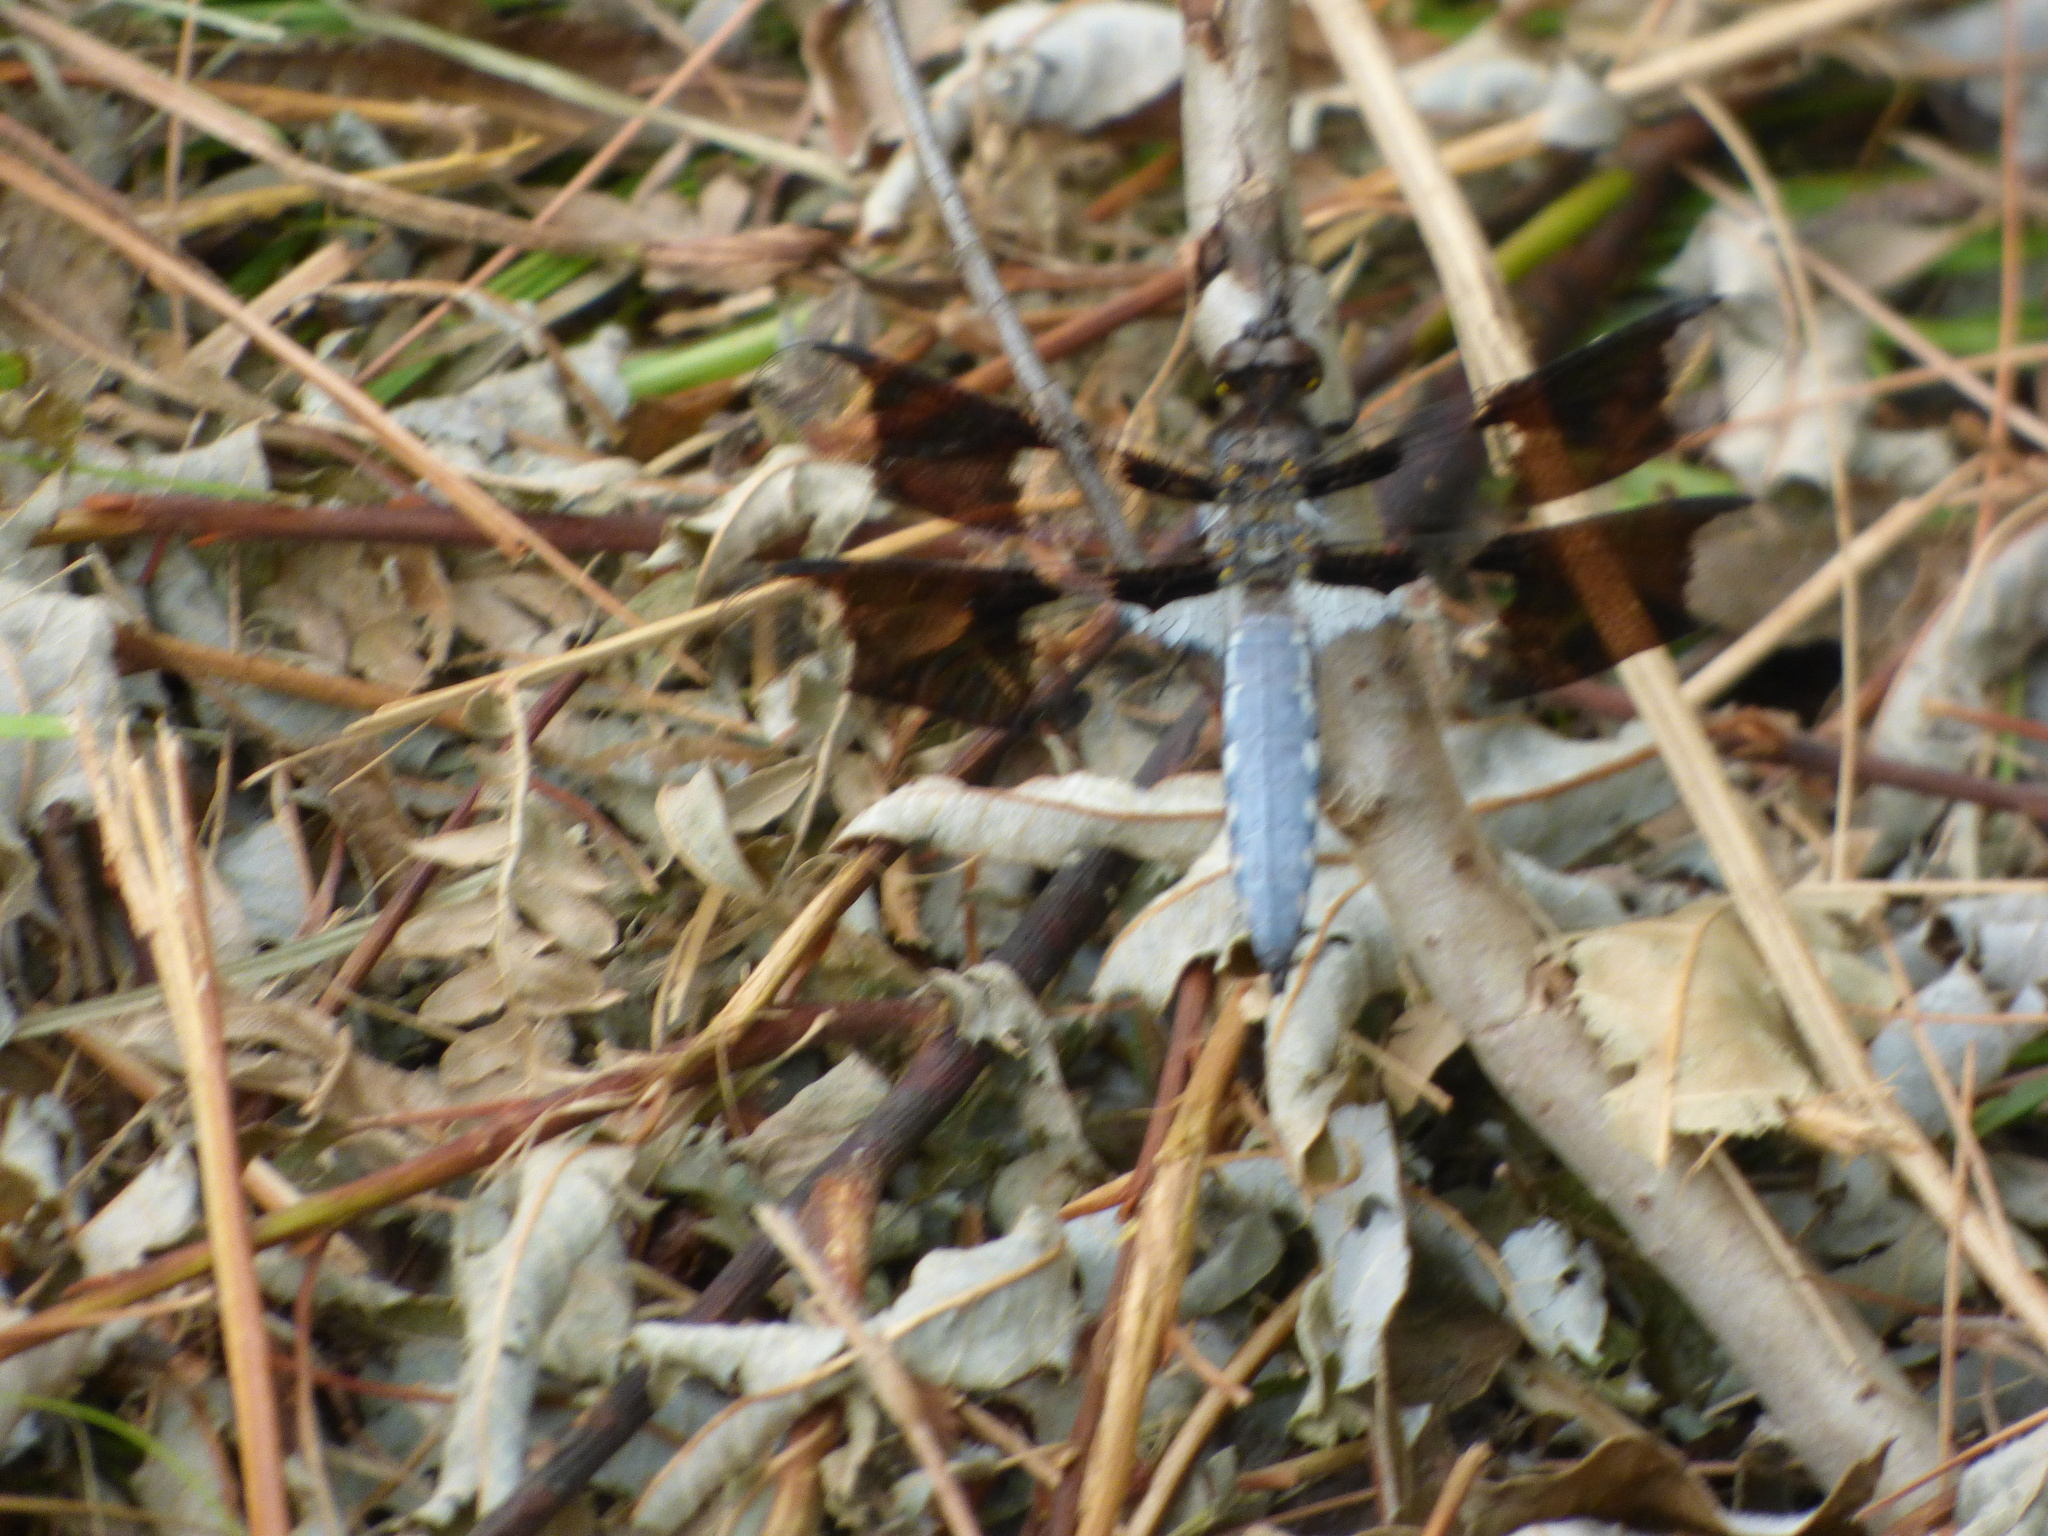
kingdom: Animalia
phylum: Arthropoda
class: Insecta
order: Odonata
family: Libellulidae
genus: Plathemis
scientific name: Plathemis lydia
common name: Common whitetail
